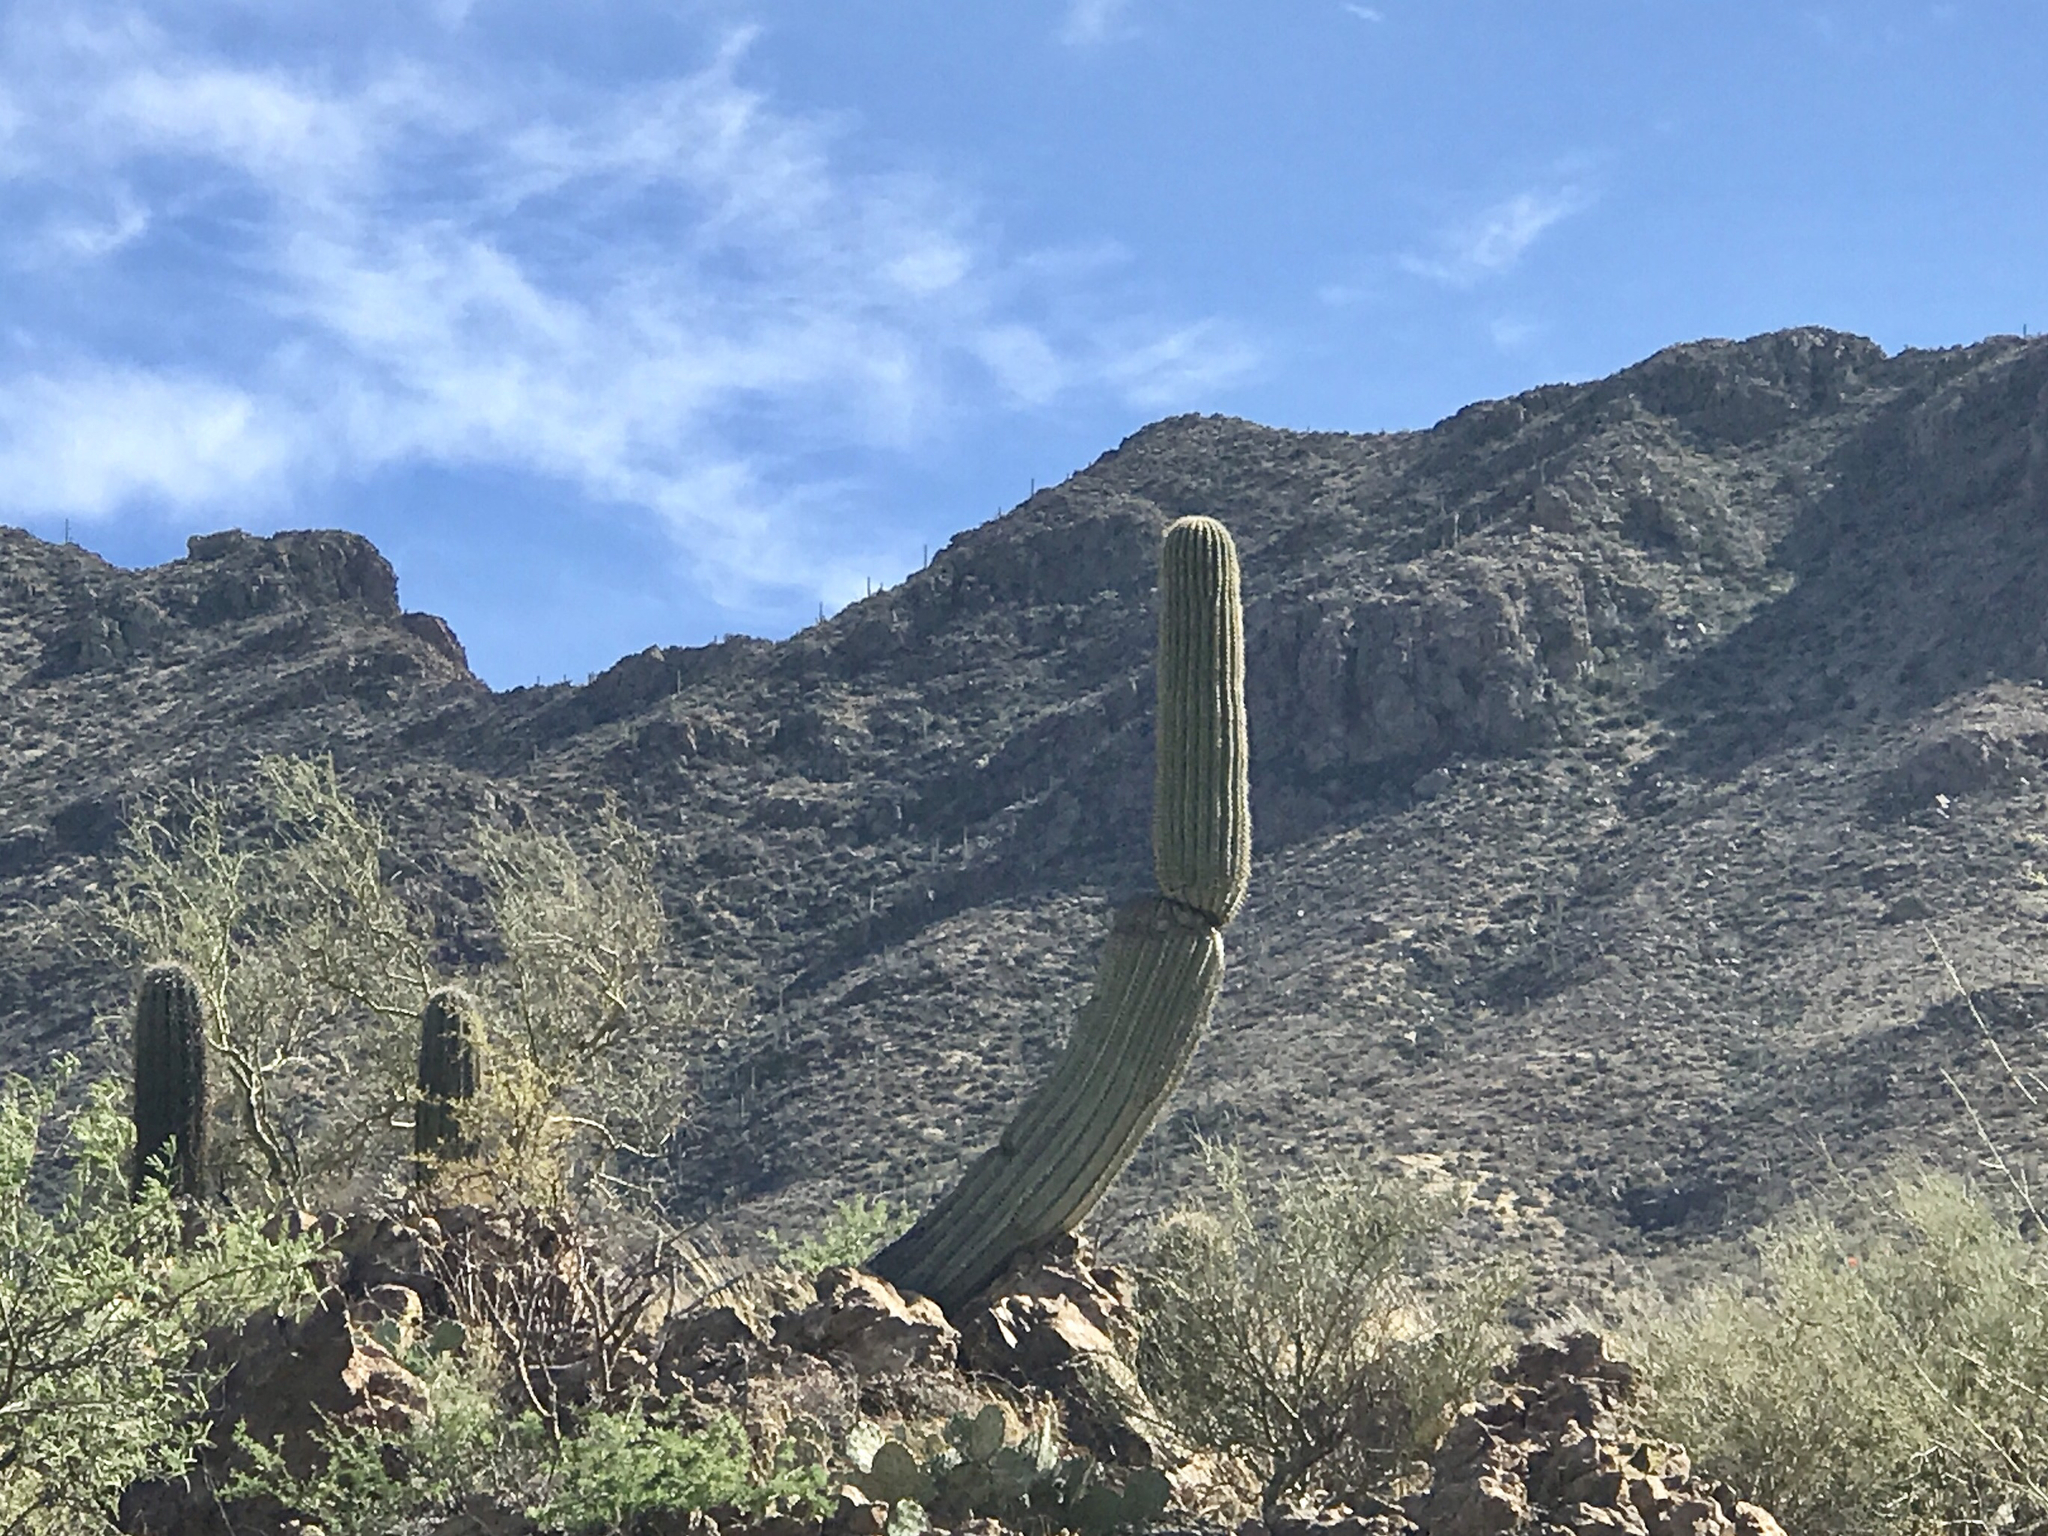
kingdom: Plantae
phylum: Tracheophyta
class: Magnoliopsida
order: Caryophyllales
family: Cactaceae
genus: Carnegiea
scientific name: Carnegiea gigantea
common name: Saguaro
